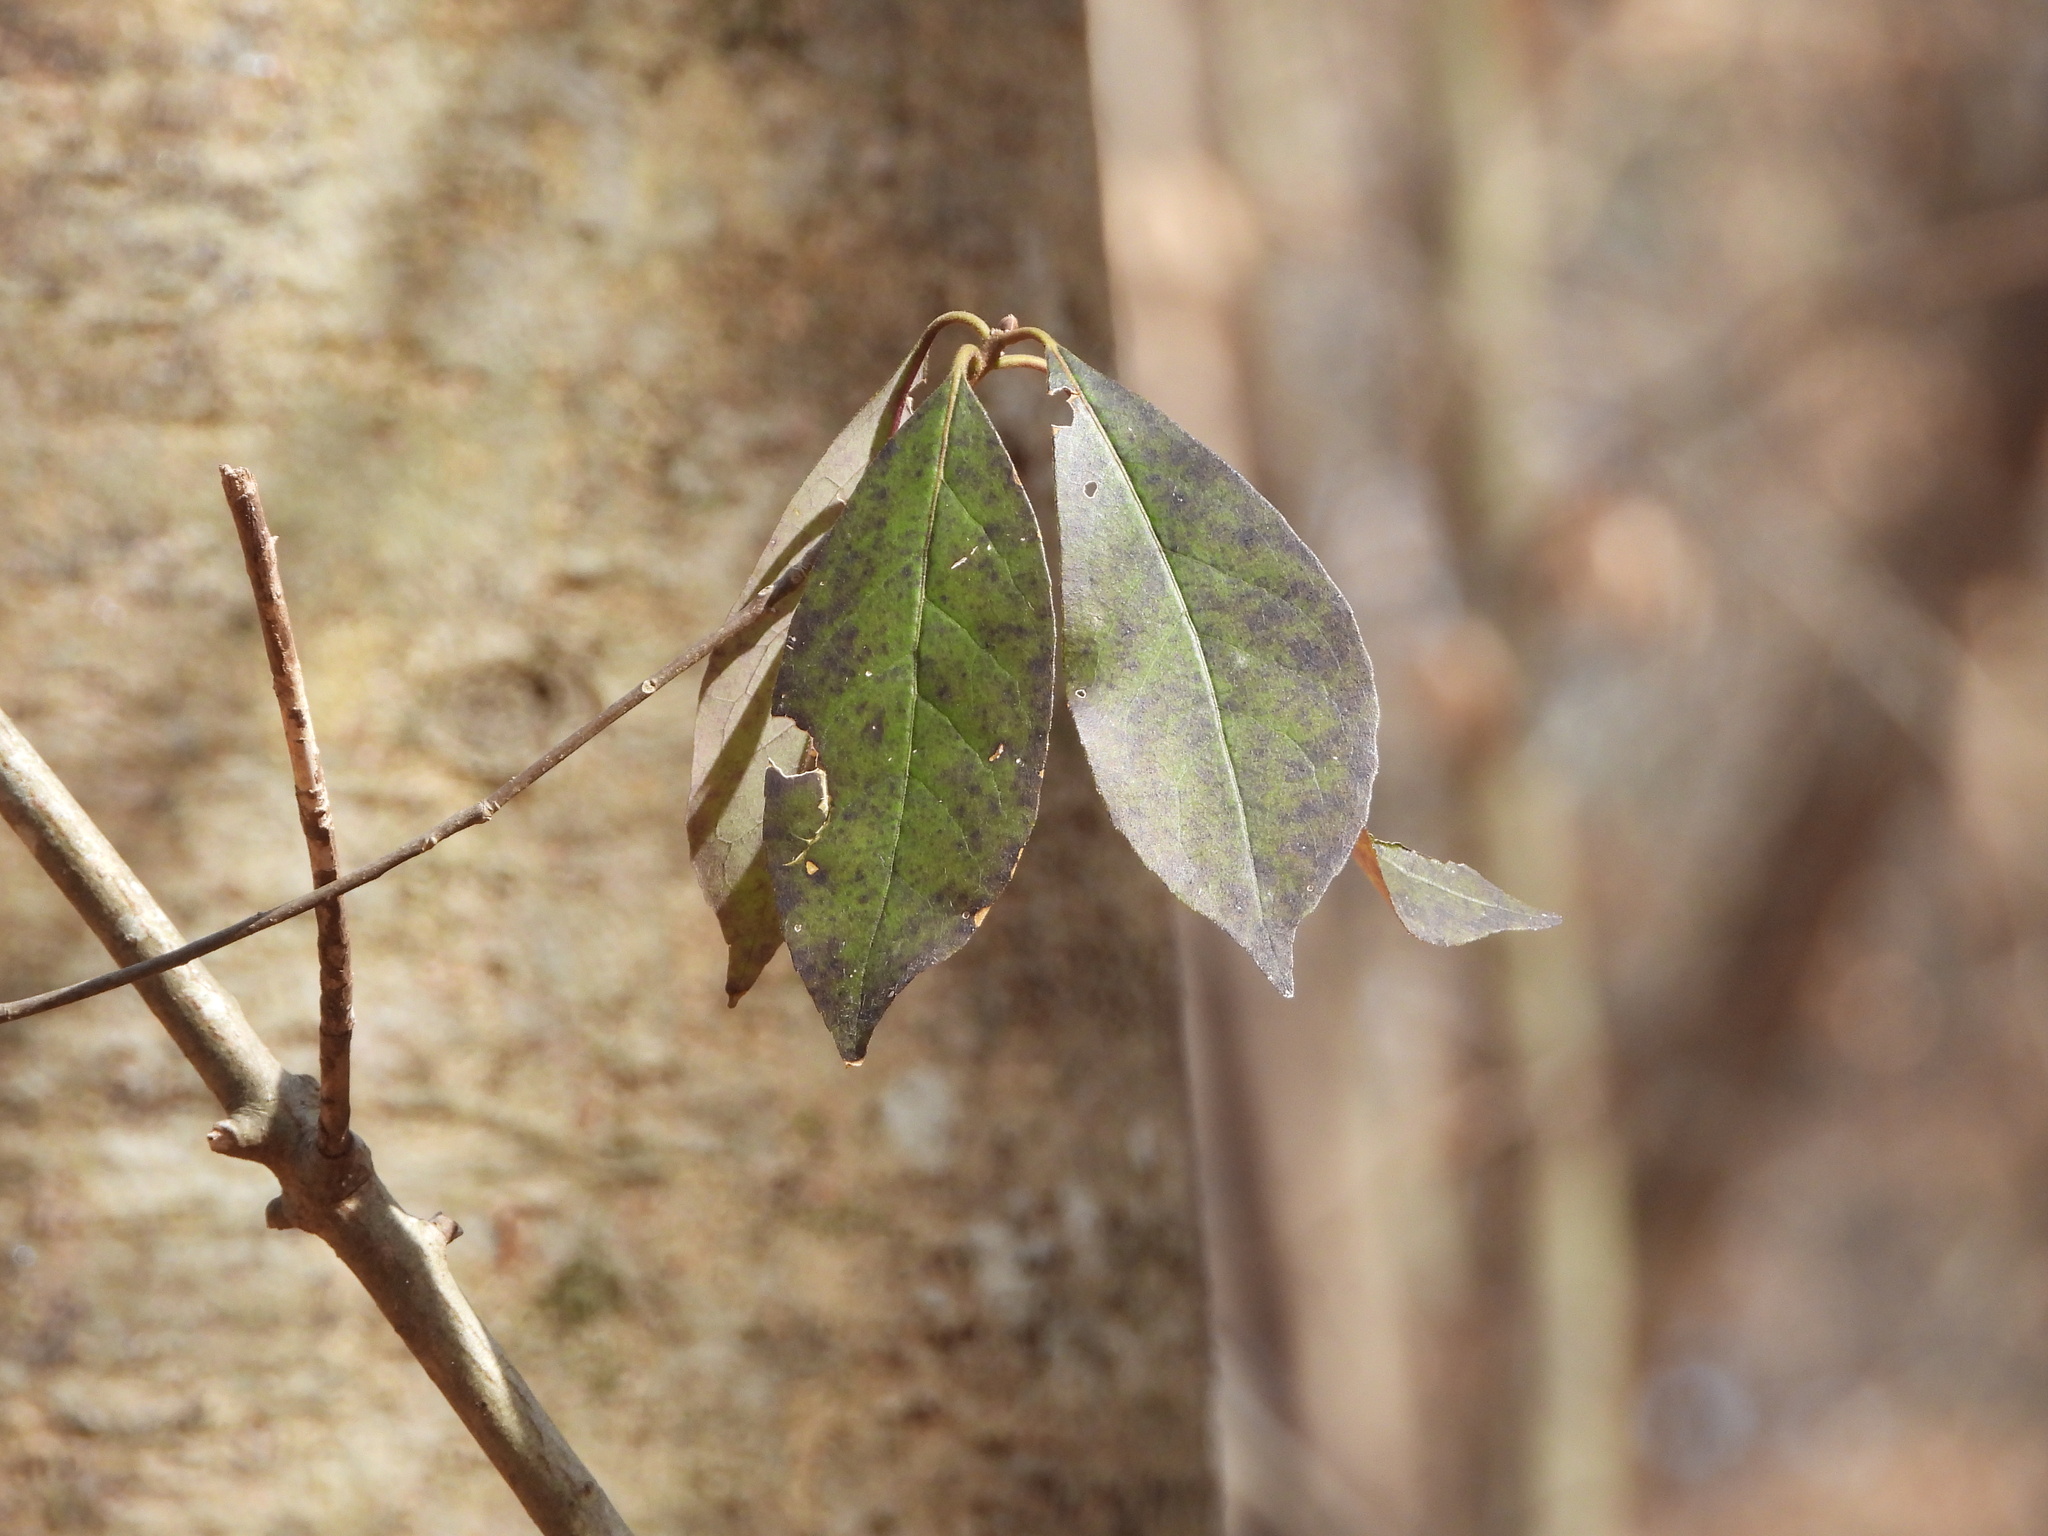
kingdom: Plantae
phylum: Tracheophyta
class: Magnoliopsida
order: Ericales
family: Symplocaceae
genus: Symplocos
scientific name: Symplocos tinctoria
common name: Horse-sugar
